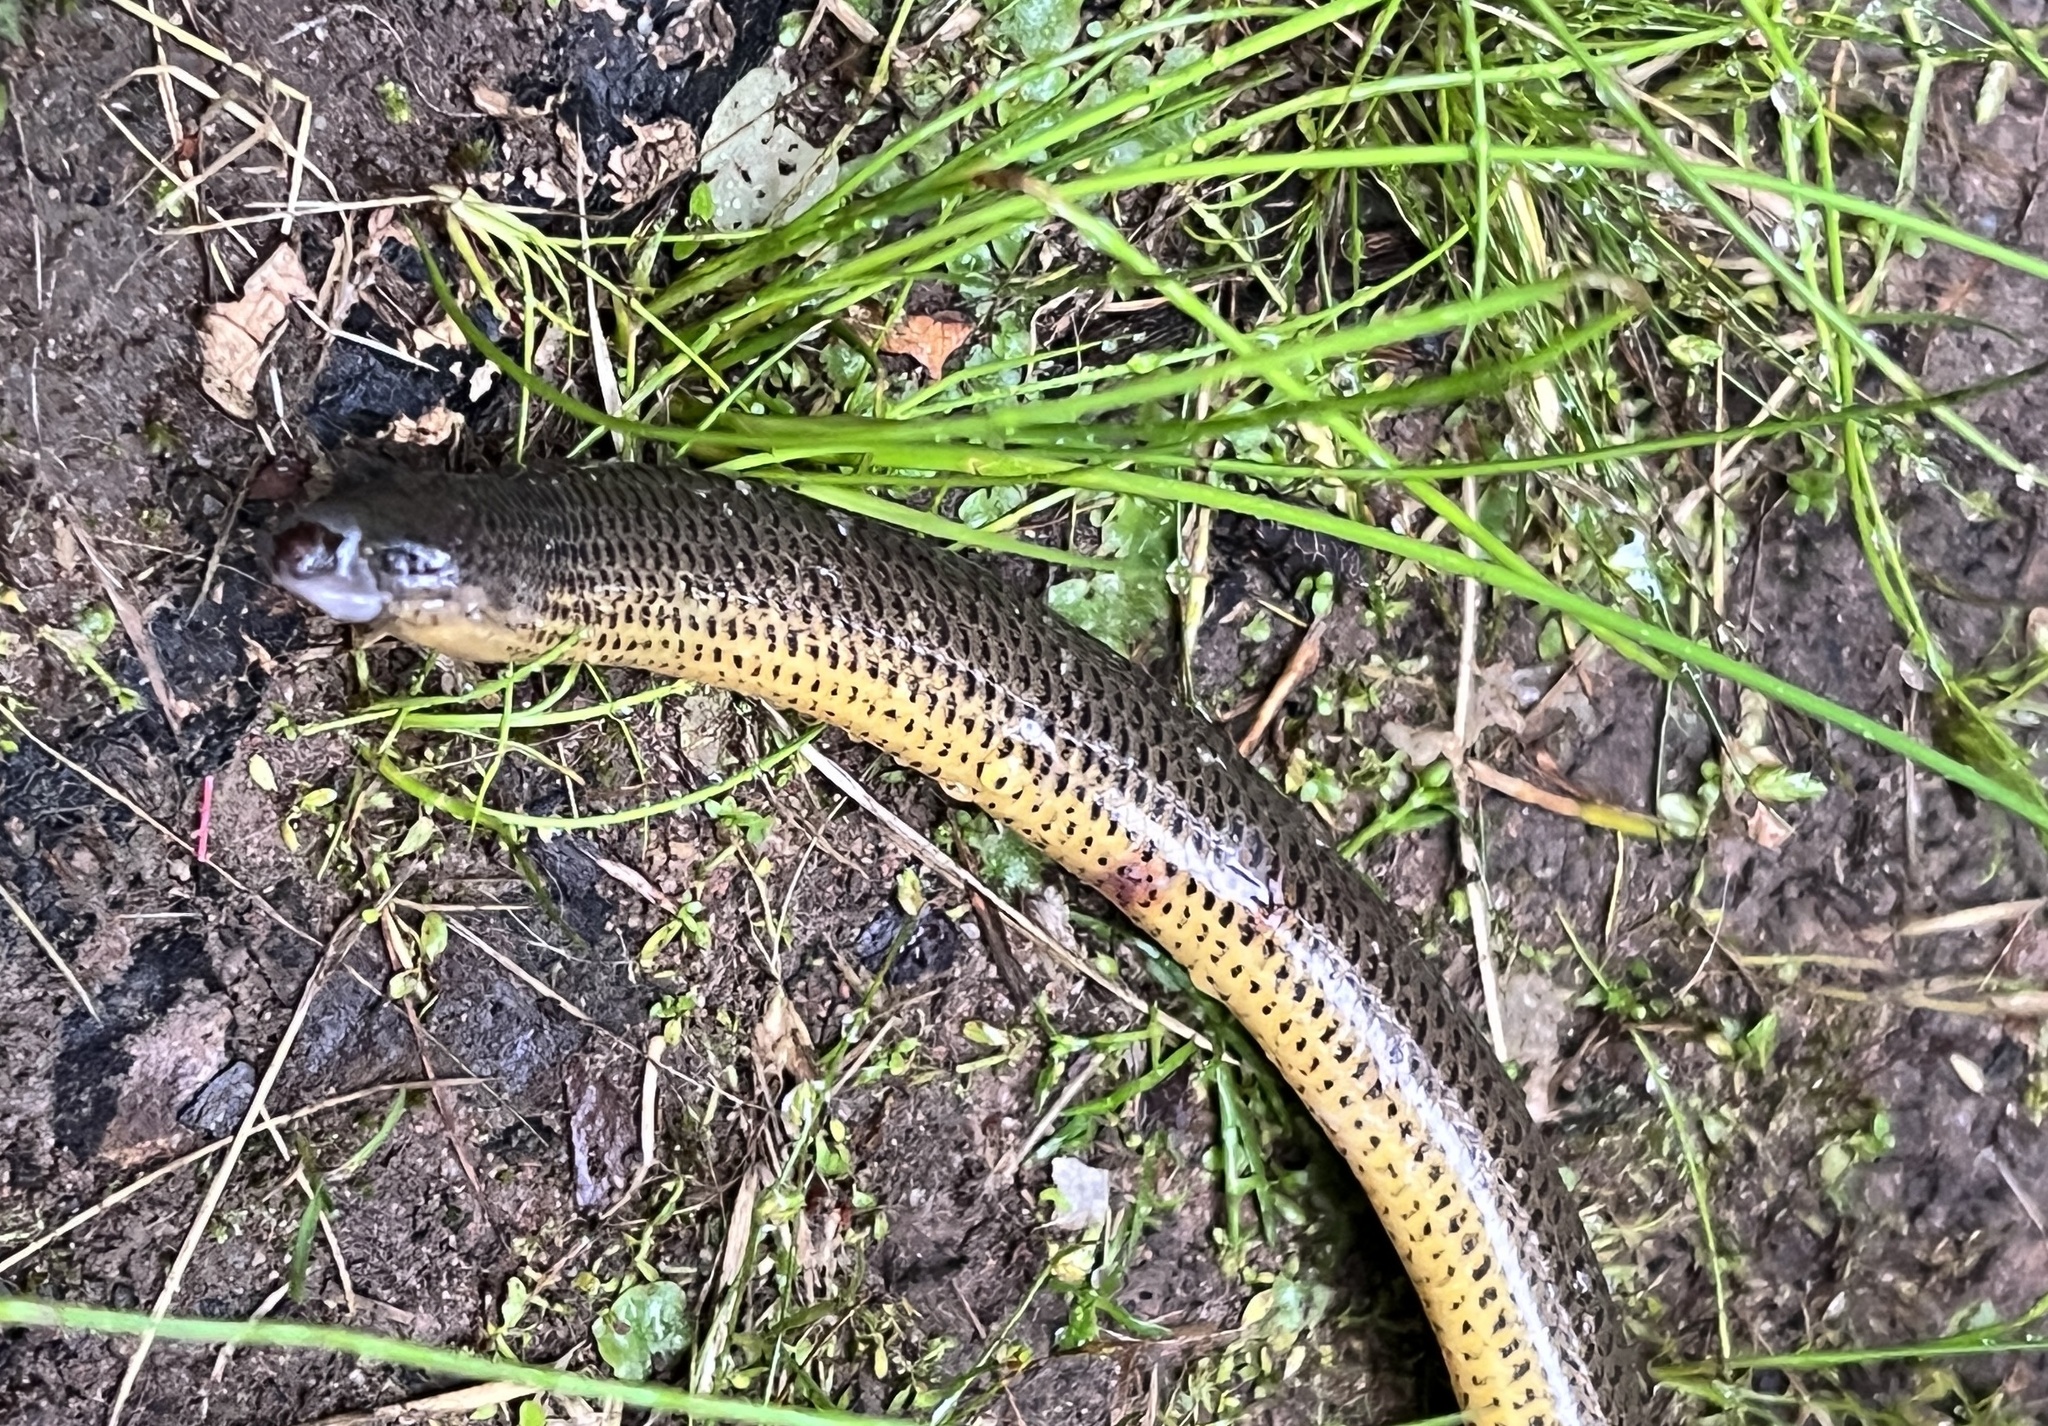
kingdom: Animalia
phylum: Chordata
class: Squamata
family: Scincidae
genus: Acontias
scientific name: Acontias meleagris
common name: Cape legless skink
